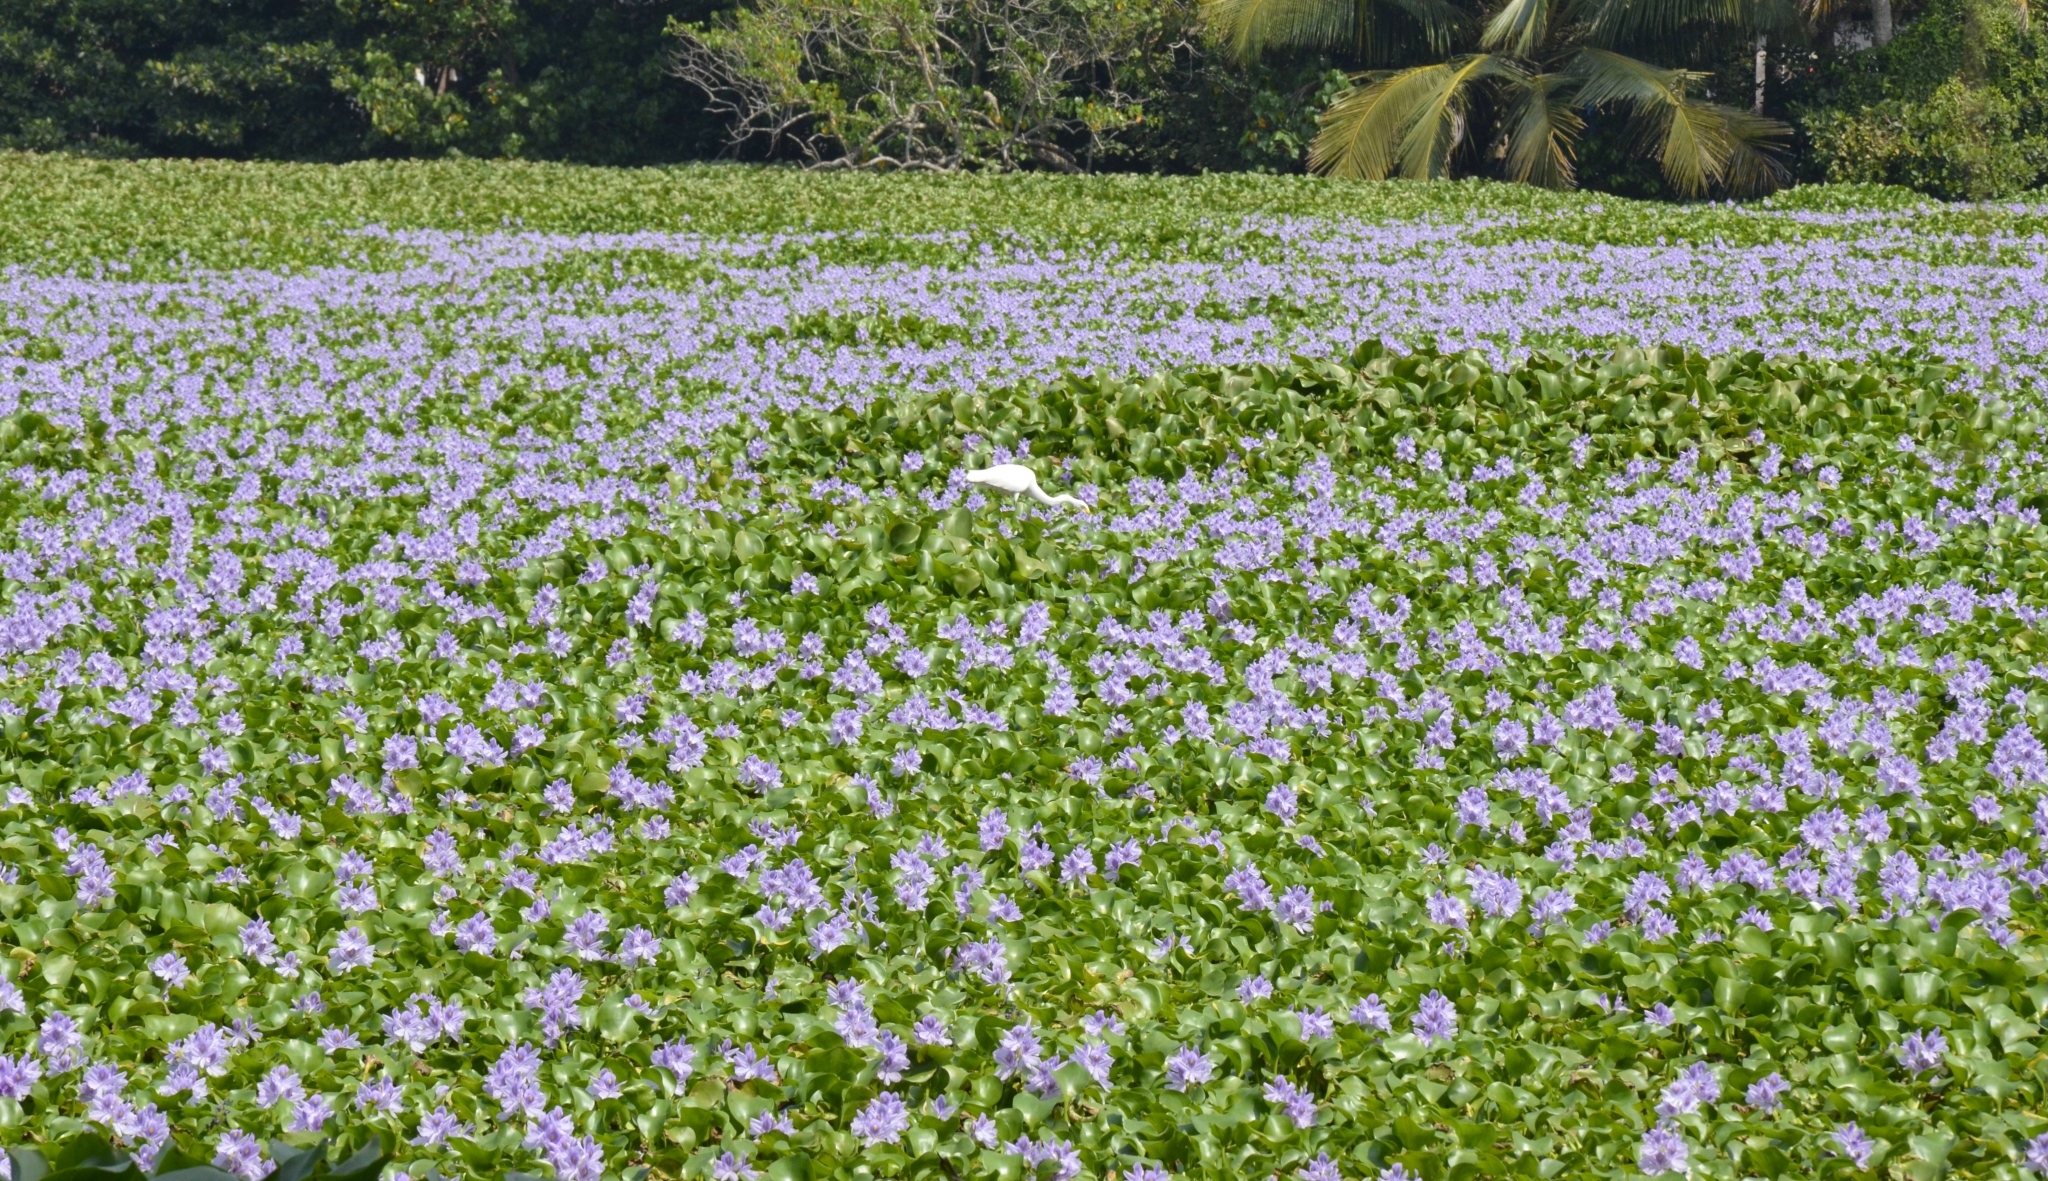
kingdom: Plantae
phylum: Tracheophyta
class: Liliopsida
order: Commelinales
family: Pontederiaceae
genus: Pontederia
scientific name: Pontederia crassipes
